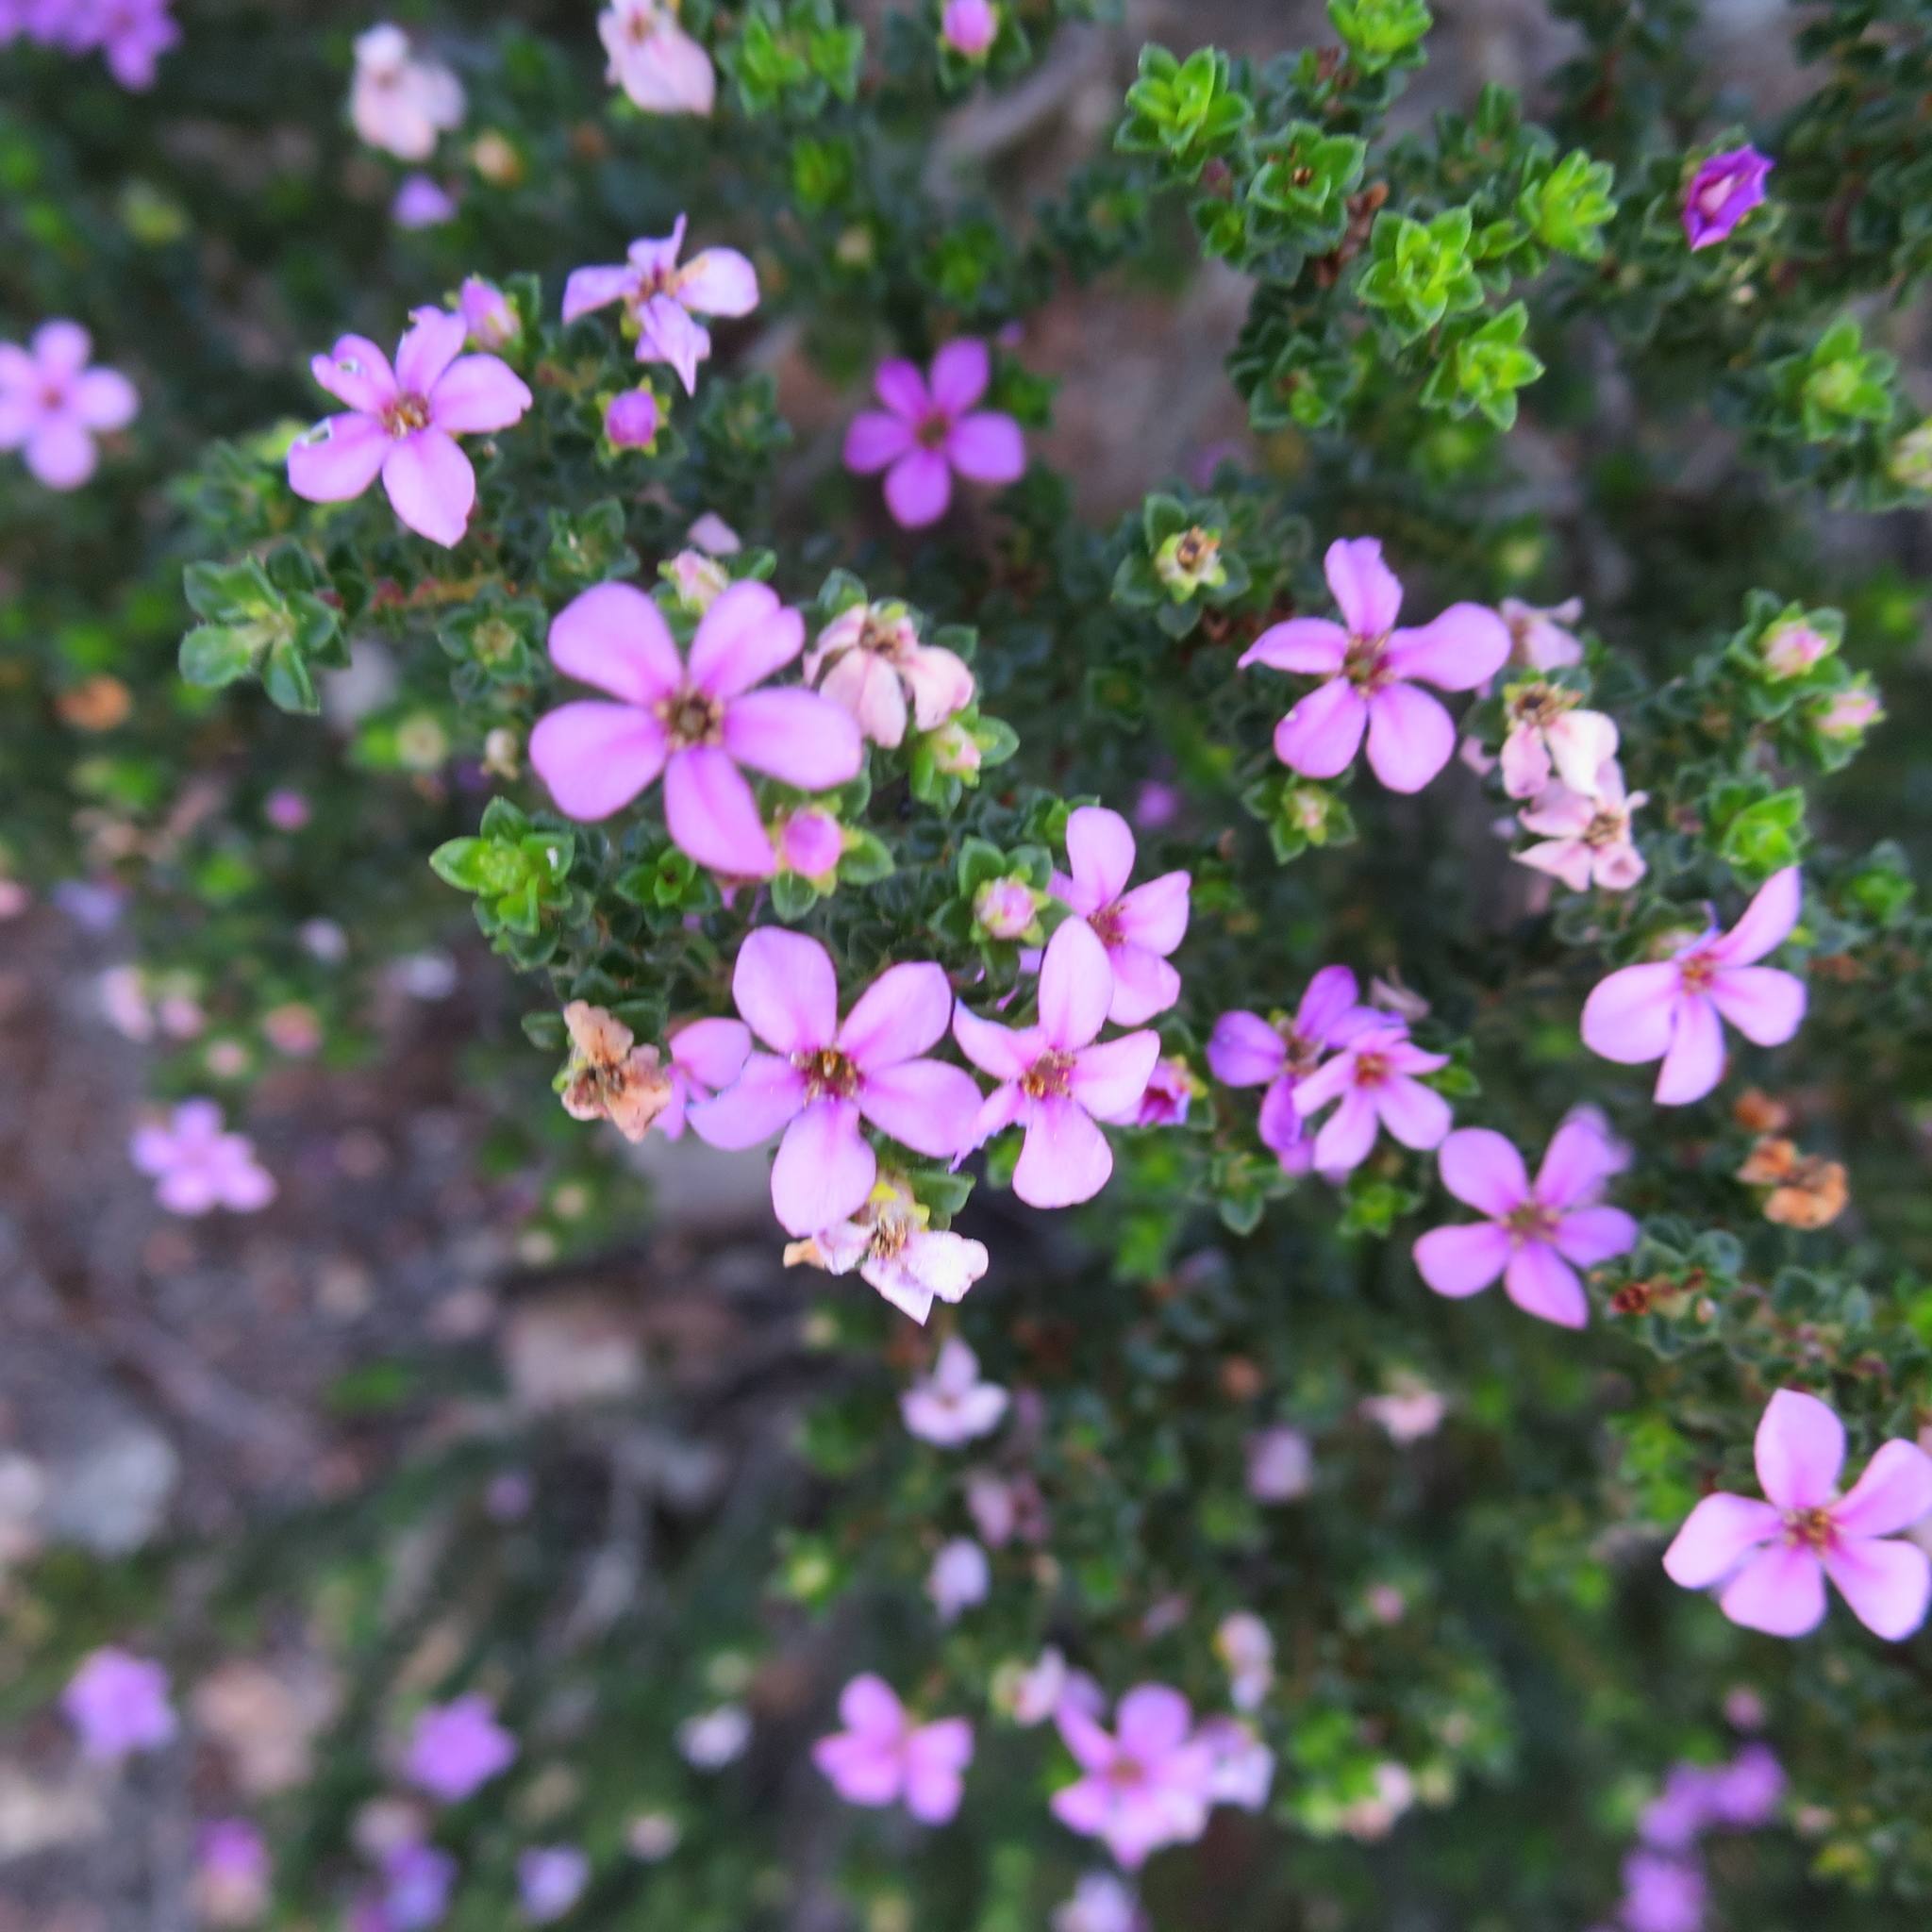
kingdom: Plantae
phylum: Tracheophyta
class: Magnoliopsida
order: Sapindales
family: Rutaceae
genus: Acmadenia
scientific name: Acmadenia heterophylla
